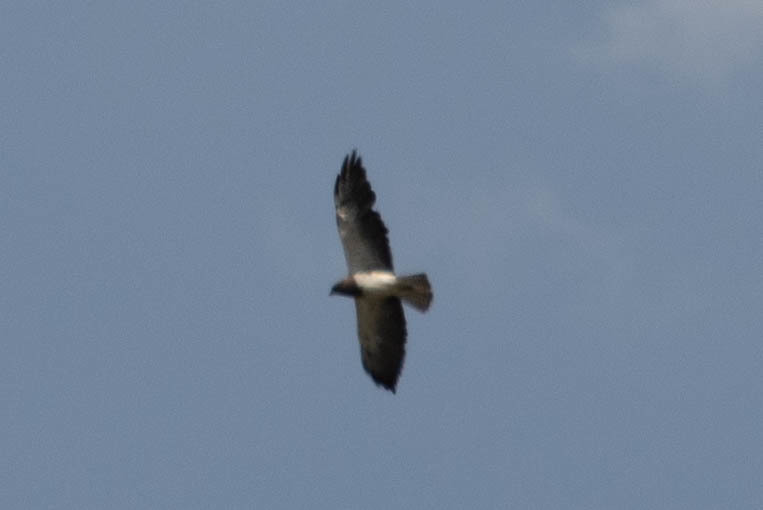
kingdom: Animalia
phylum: Chordata
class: Aves
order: Accipitriformes
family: Accipitridae
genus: Buteo
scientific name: Buteo swainsoni
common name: Swainson's hawk
